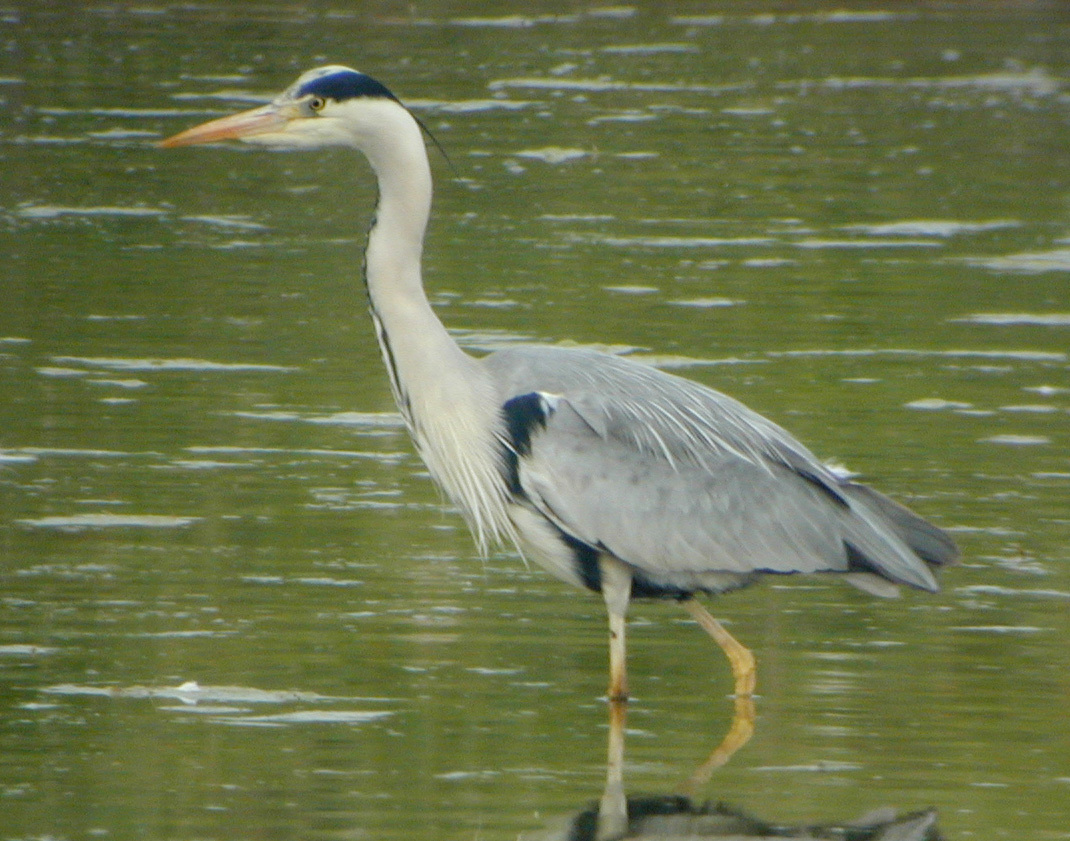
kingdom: Animalia
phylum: Chordata
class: Aves
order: Pelecaniformes
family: Ardeidae
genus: Ardea
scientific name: Ardea cinerea
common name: Grey heron
